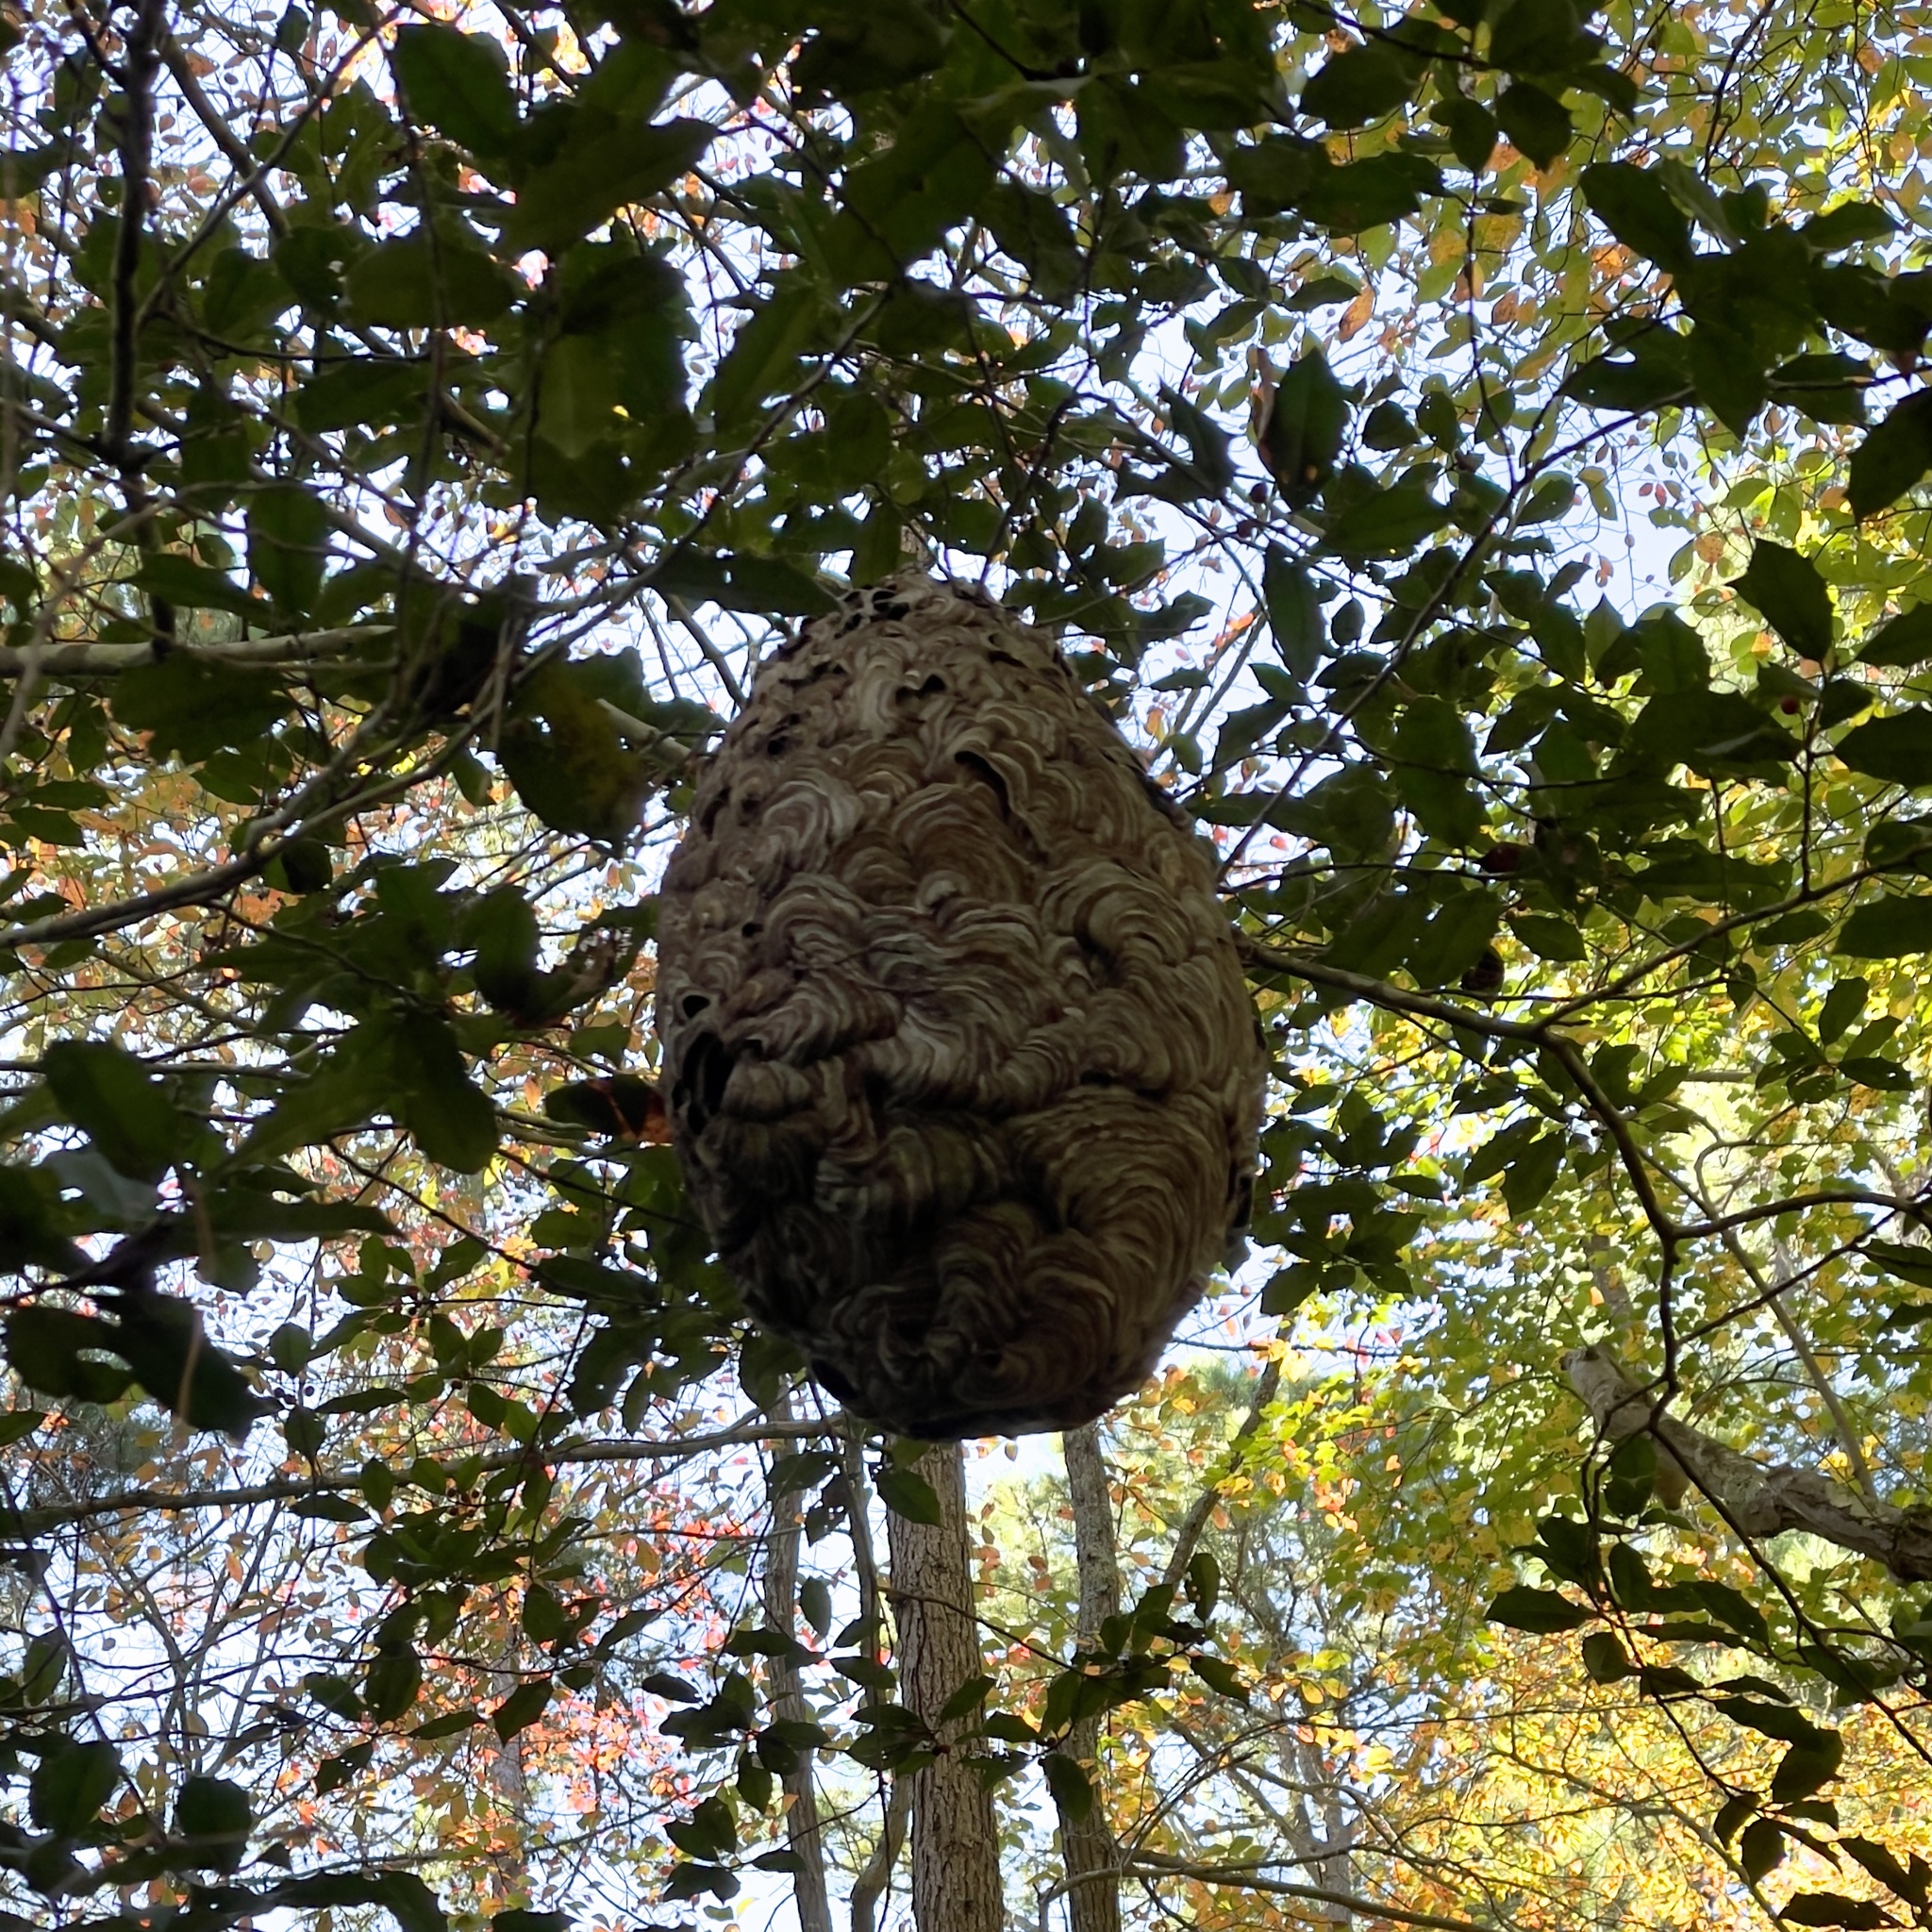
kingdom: Animalia
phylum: Arthropoda
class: Insecta
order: Hymenoptera
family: Vespidae
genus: Dolichovespula
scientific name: Dolichovespula maculata
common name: Bald-faced hornet
